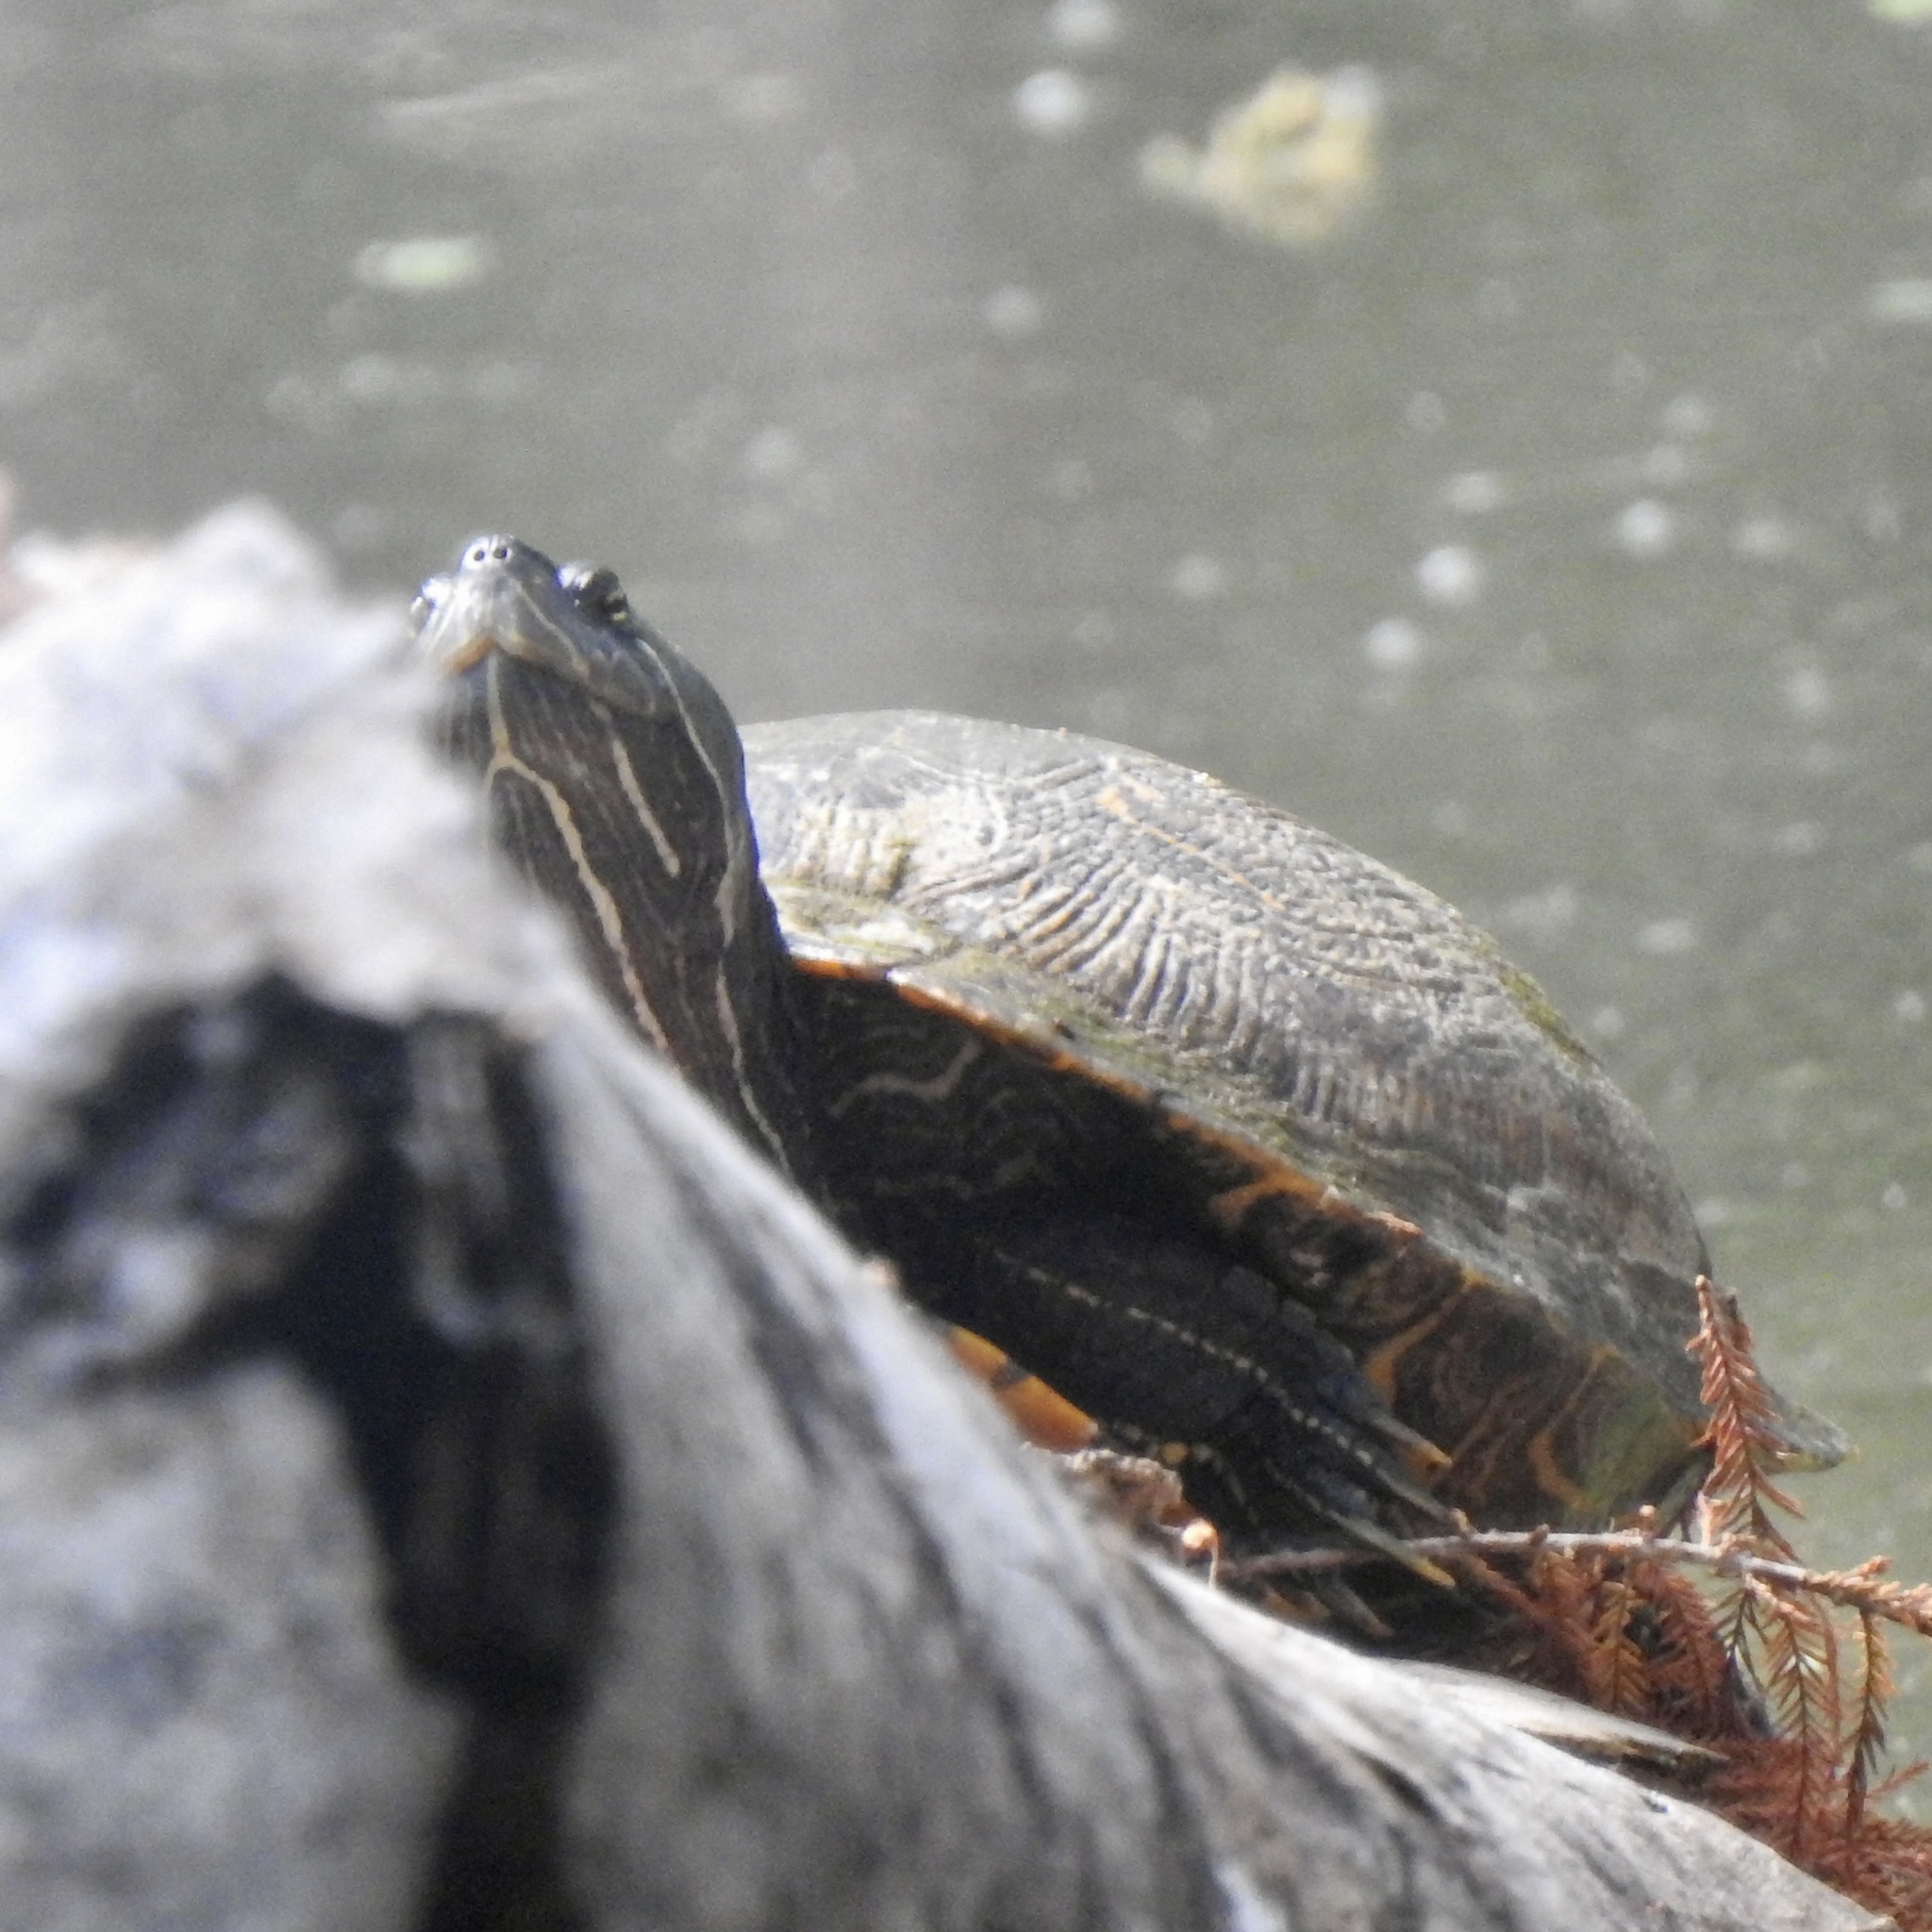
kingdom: Animalia
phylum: Chordata
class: Testudines
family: Emydidae
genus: Pseudemys
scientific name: Pseudemys concinna
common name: Eastern river cooter
